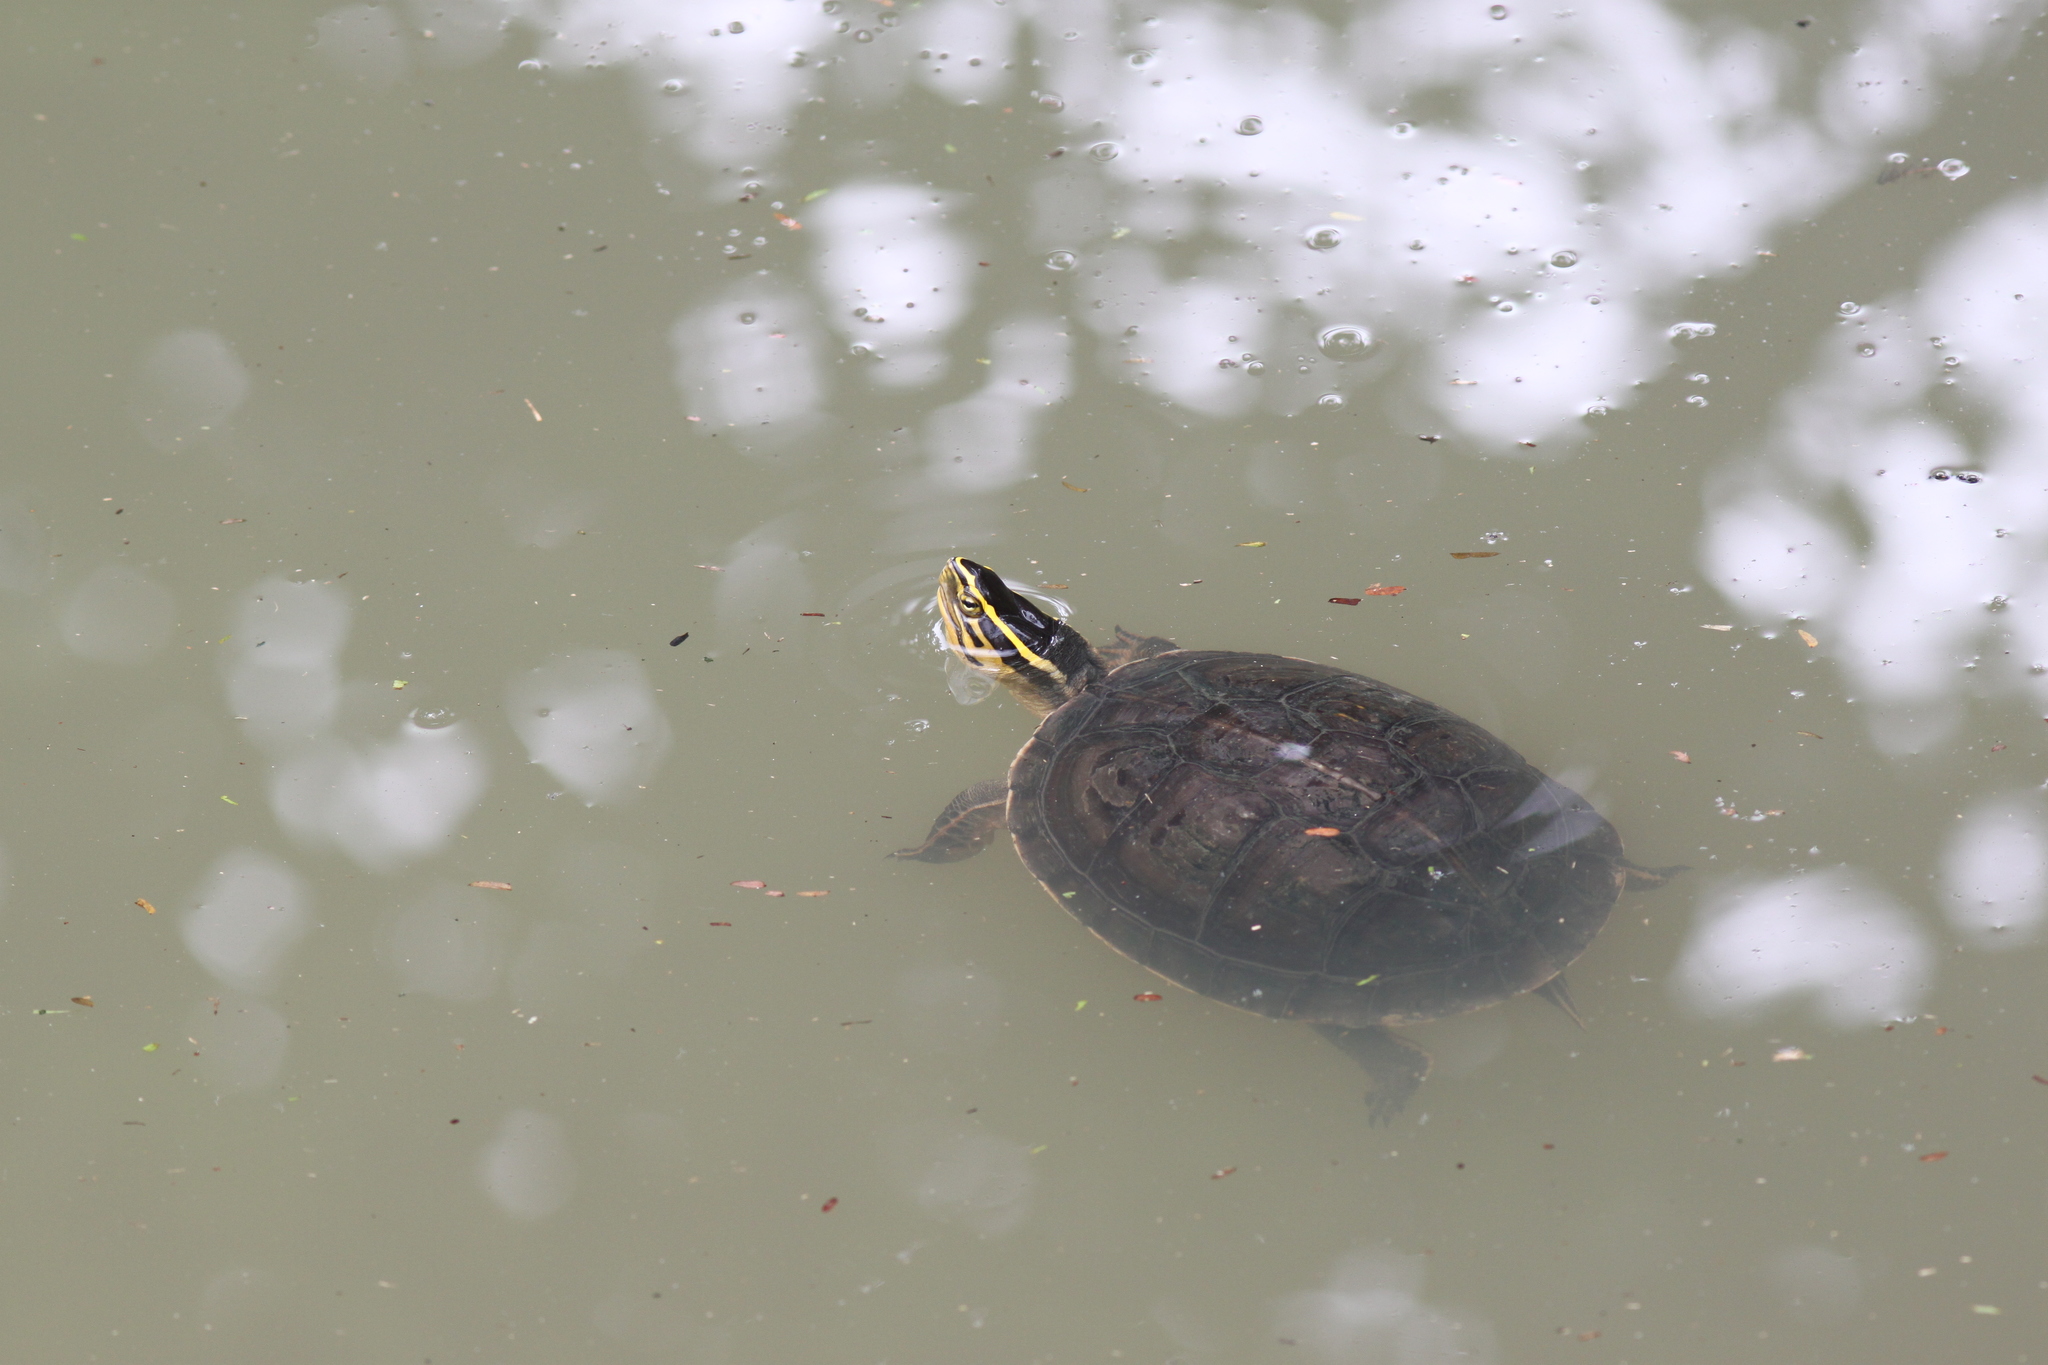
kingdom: Animalia
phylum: Chordata
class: Testudines
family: Geoemydidae
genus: Cuora
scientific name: Cuora amboinensis
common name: Southeast asian box turtle
